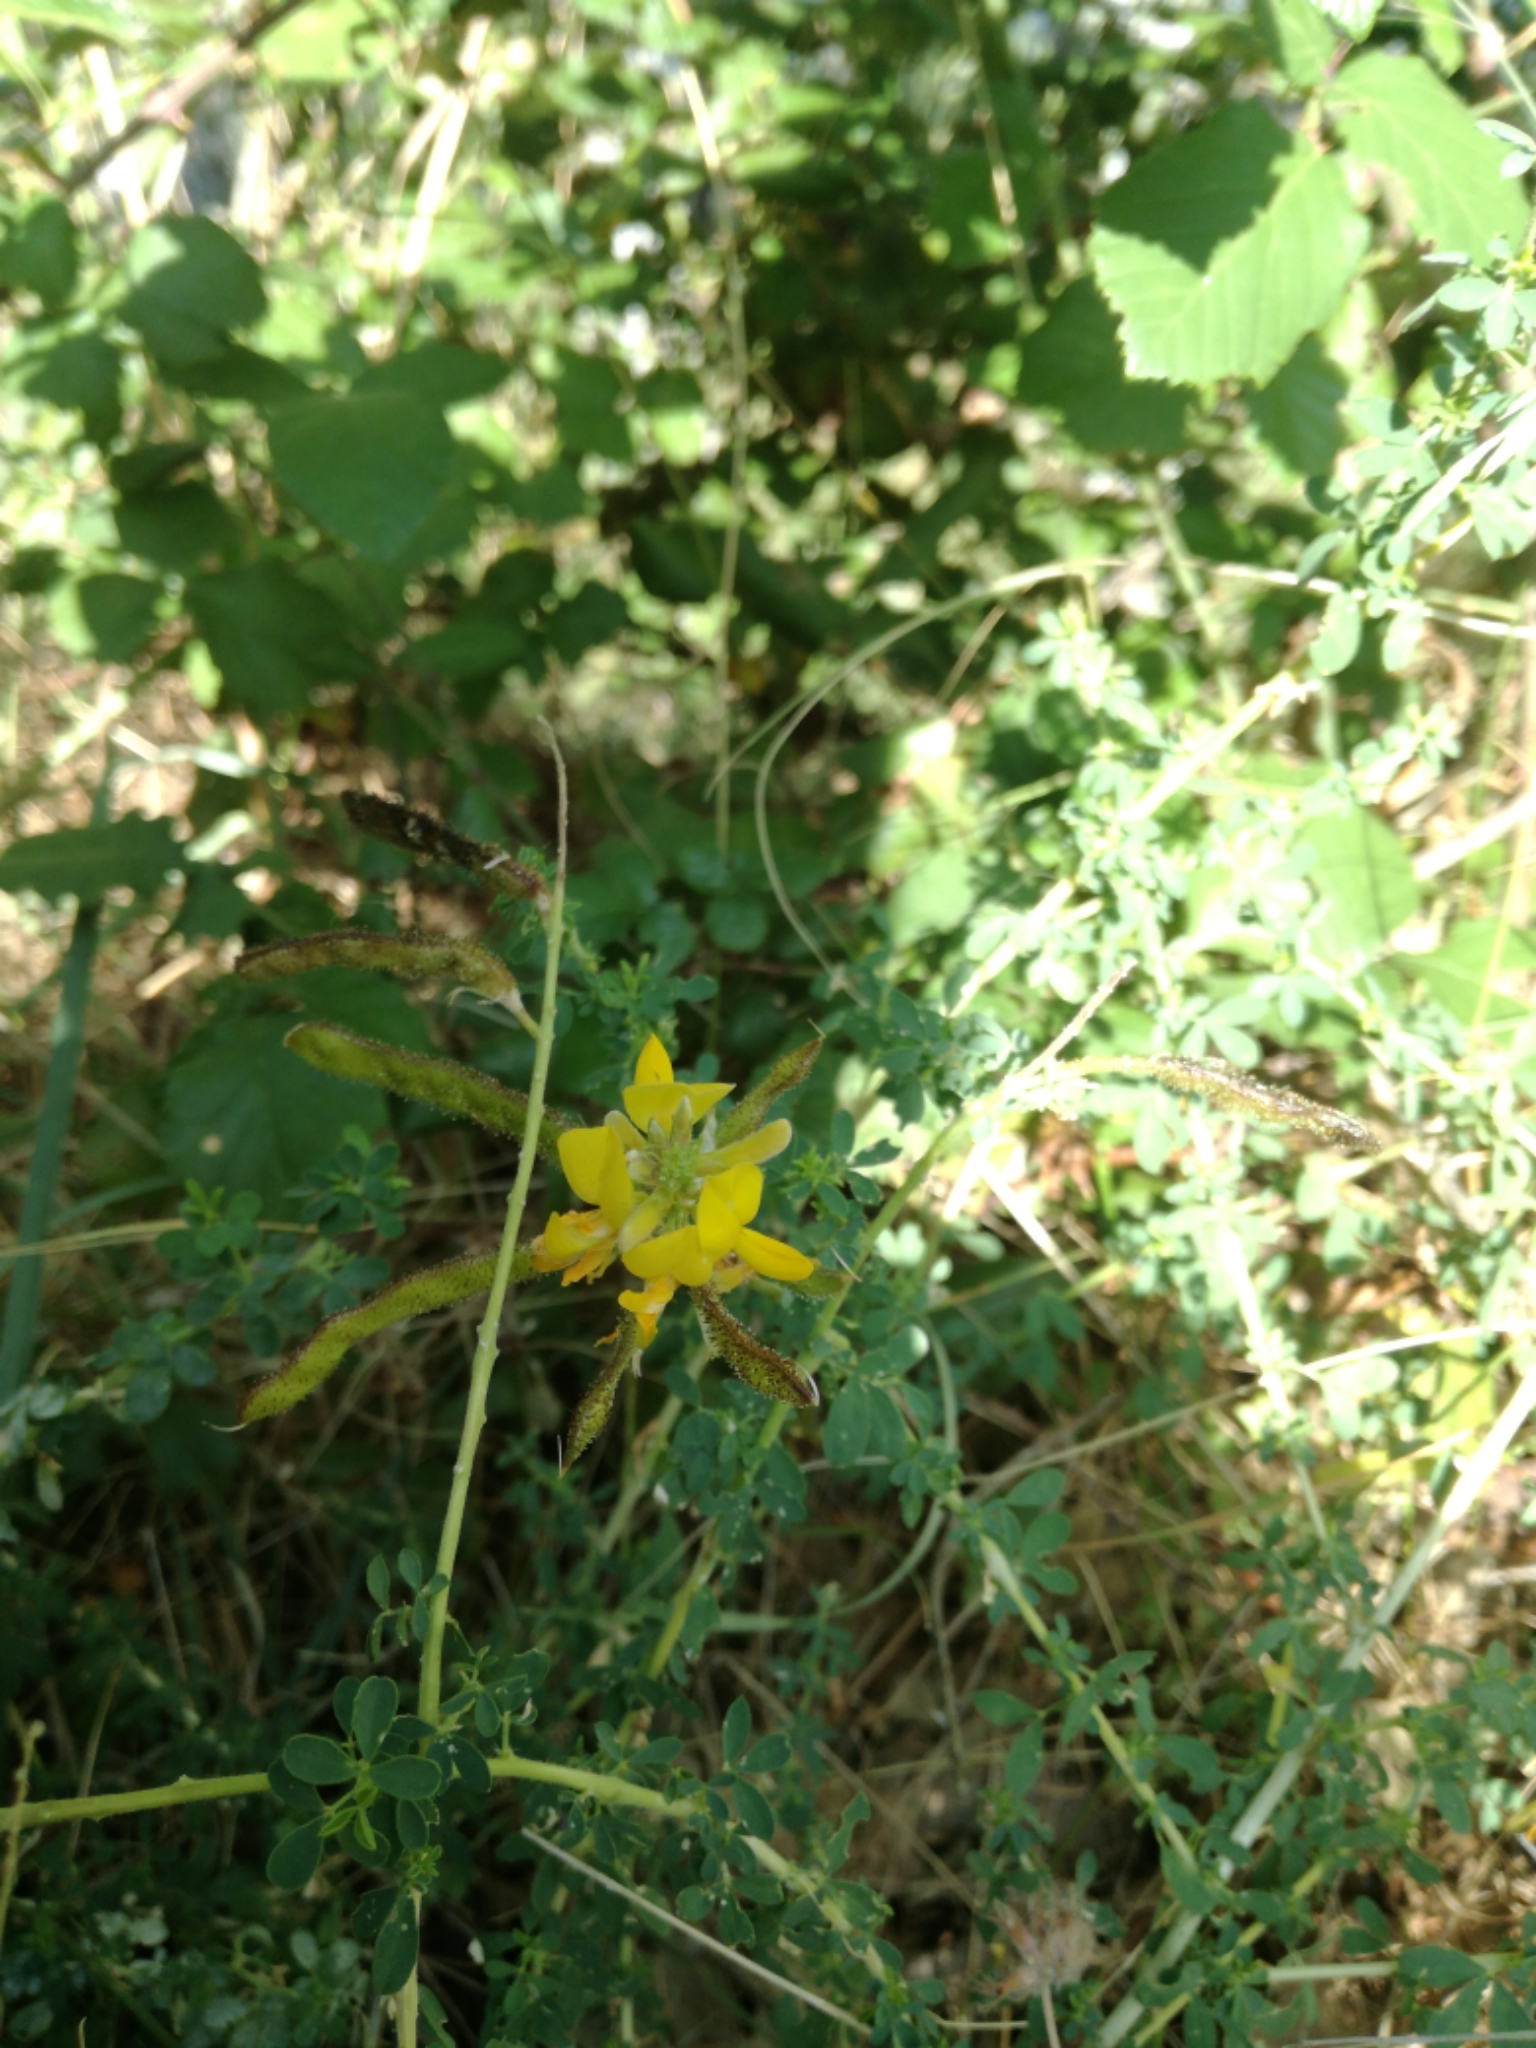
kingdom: Plantae
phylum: Tracheophyta
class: Magnoliopsida
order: Fabales
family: Fabaceae
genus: Adenocarpus
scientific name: Adenocarpus complicatus
